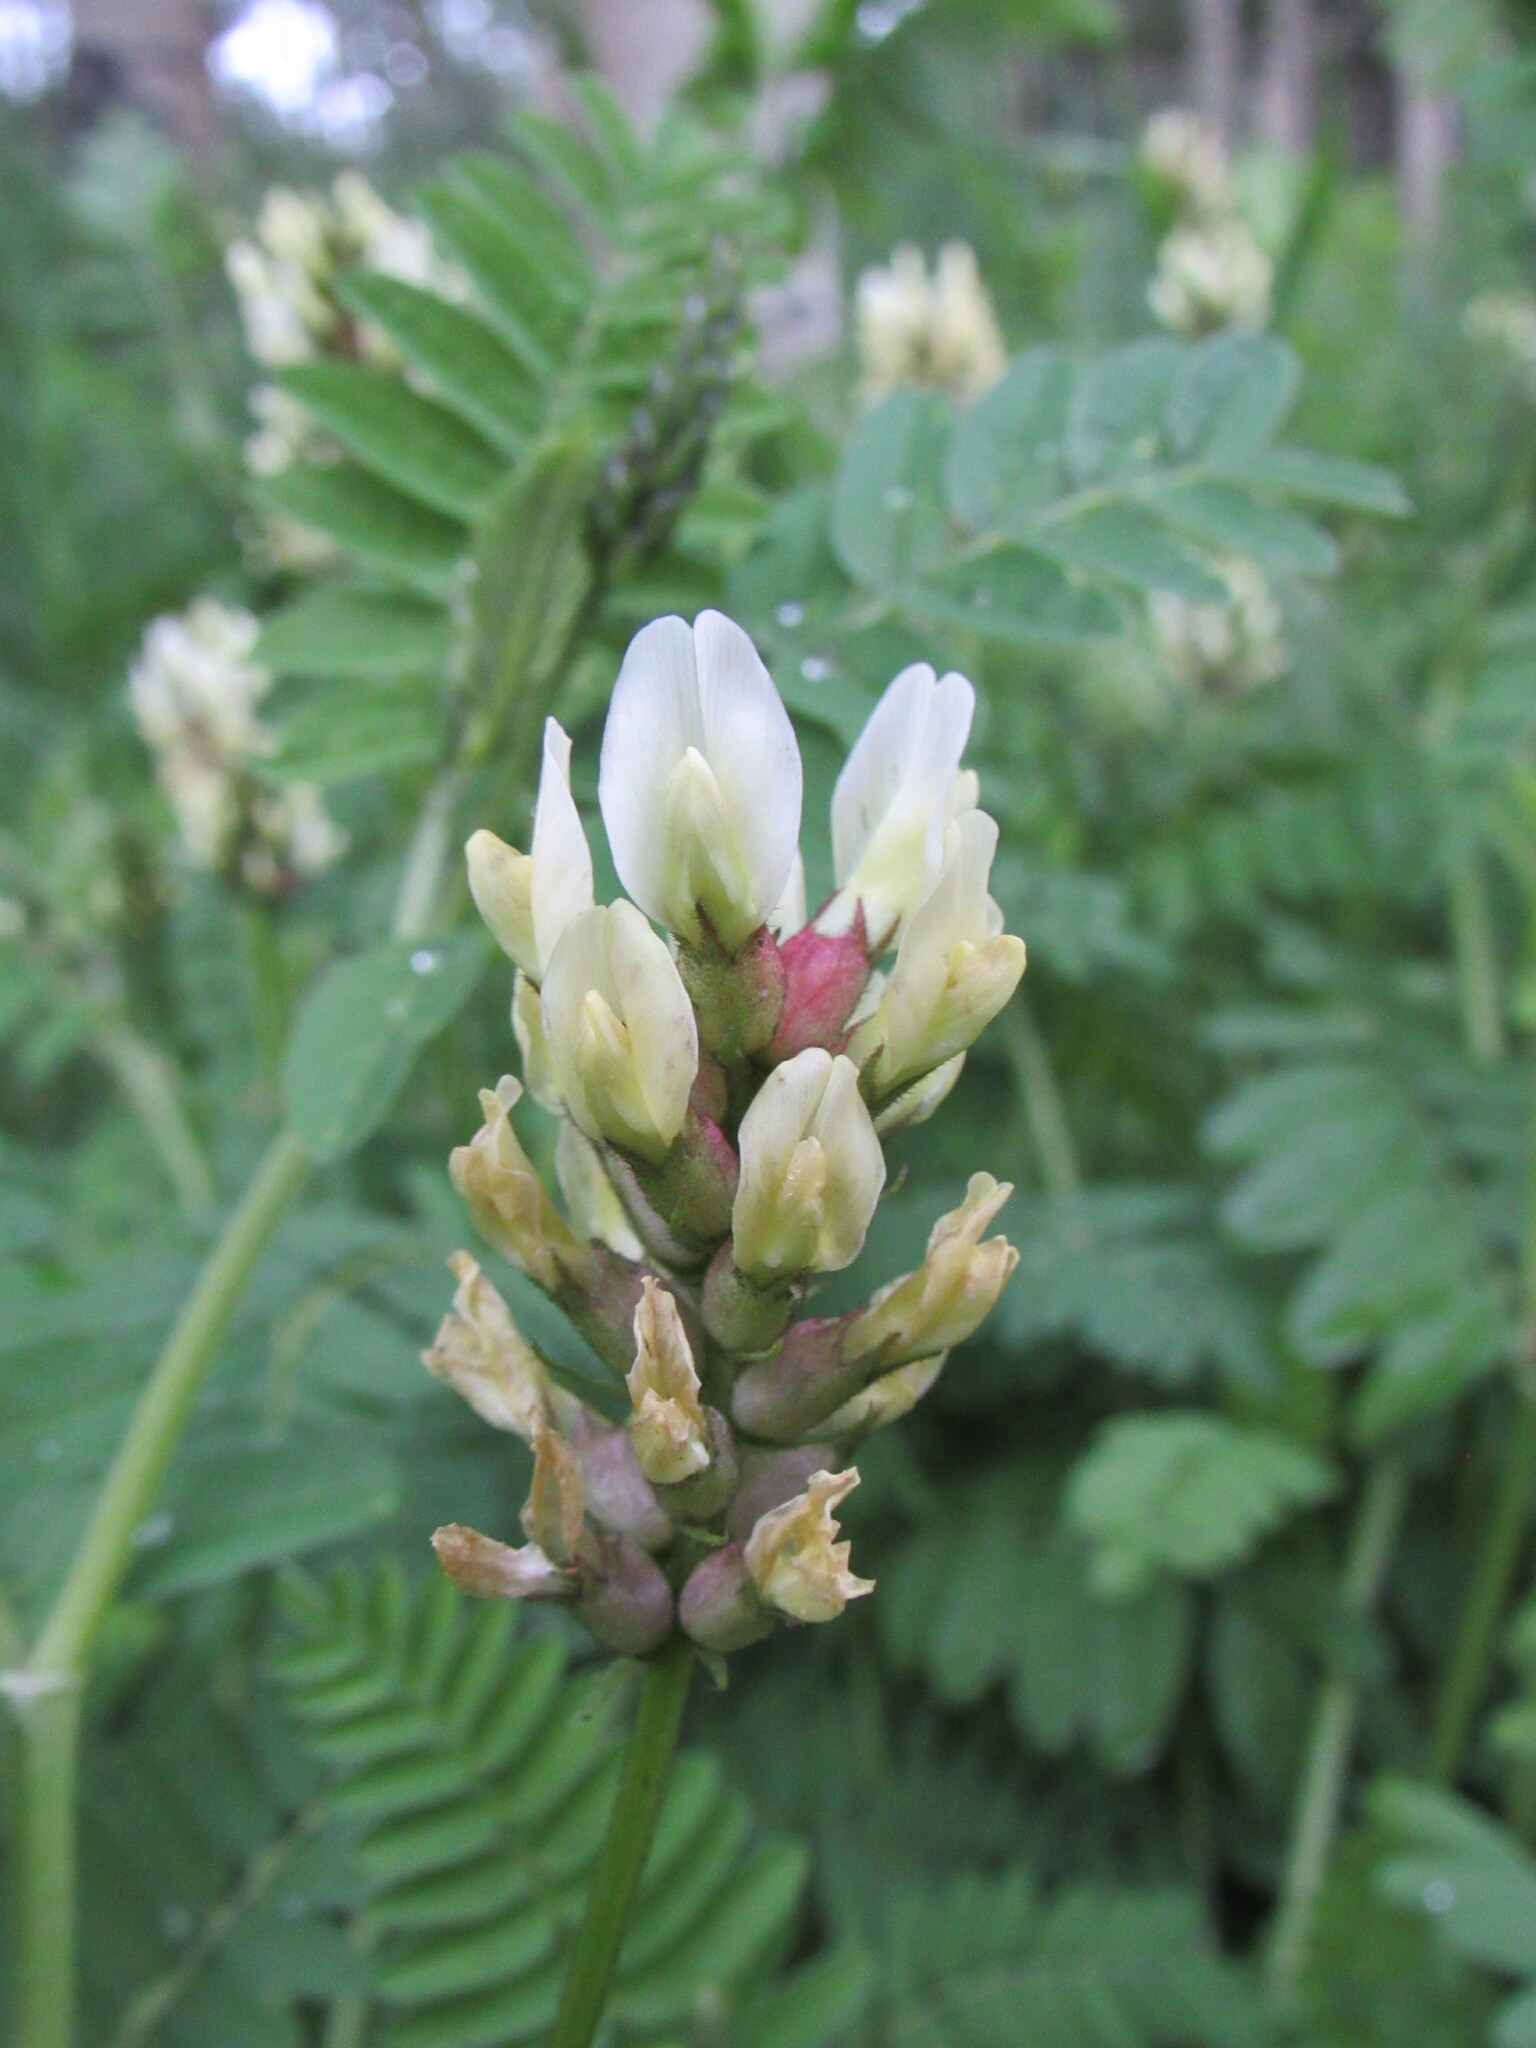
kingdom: Plantae
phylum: Tracheophyta
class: Magnoliopsida
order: Fabales
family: Fabaceae
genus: Astragalus
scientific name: Astragalus cicer
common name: Chick-pea milk-vetch
